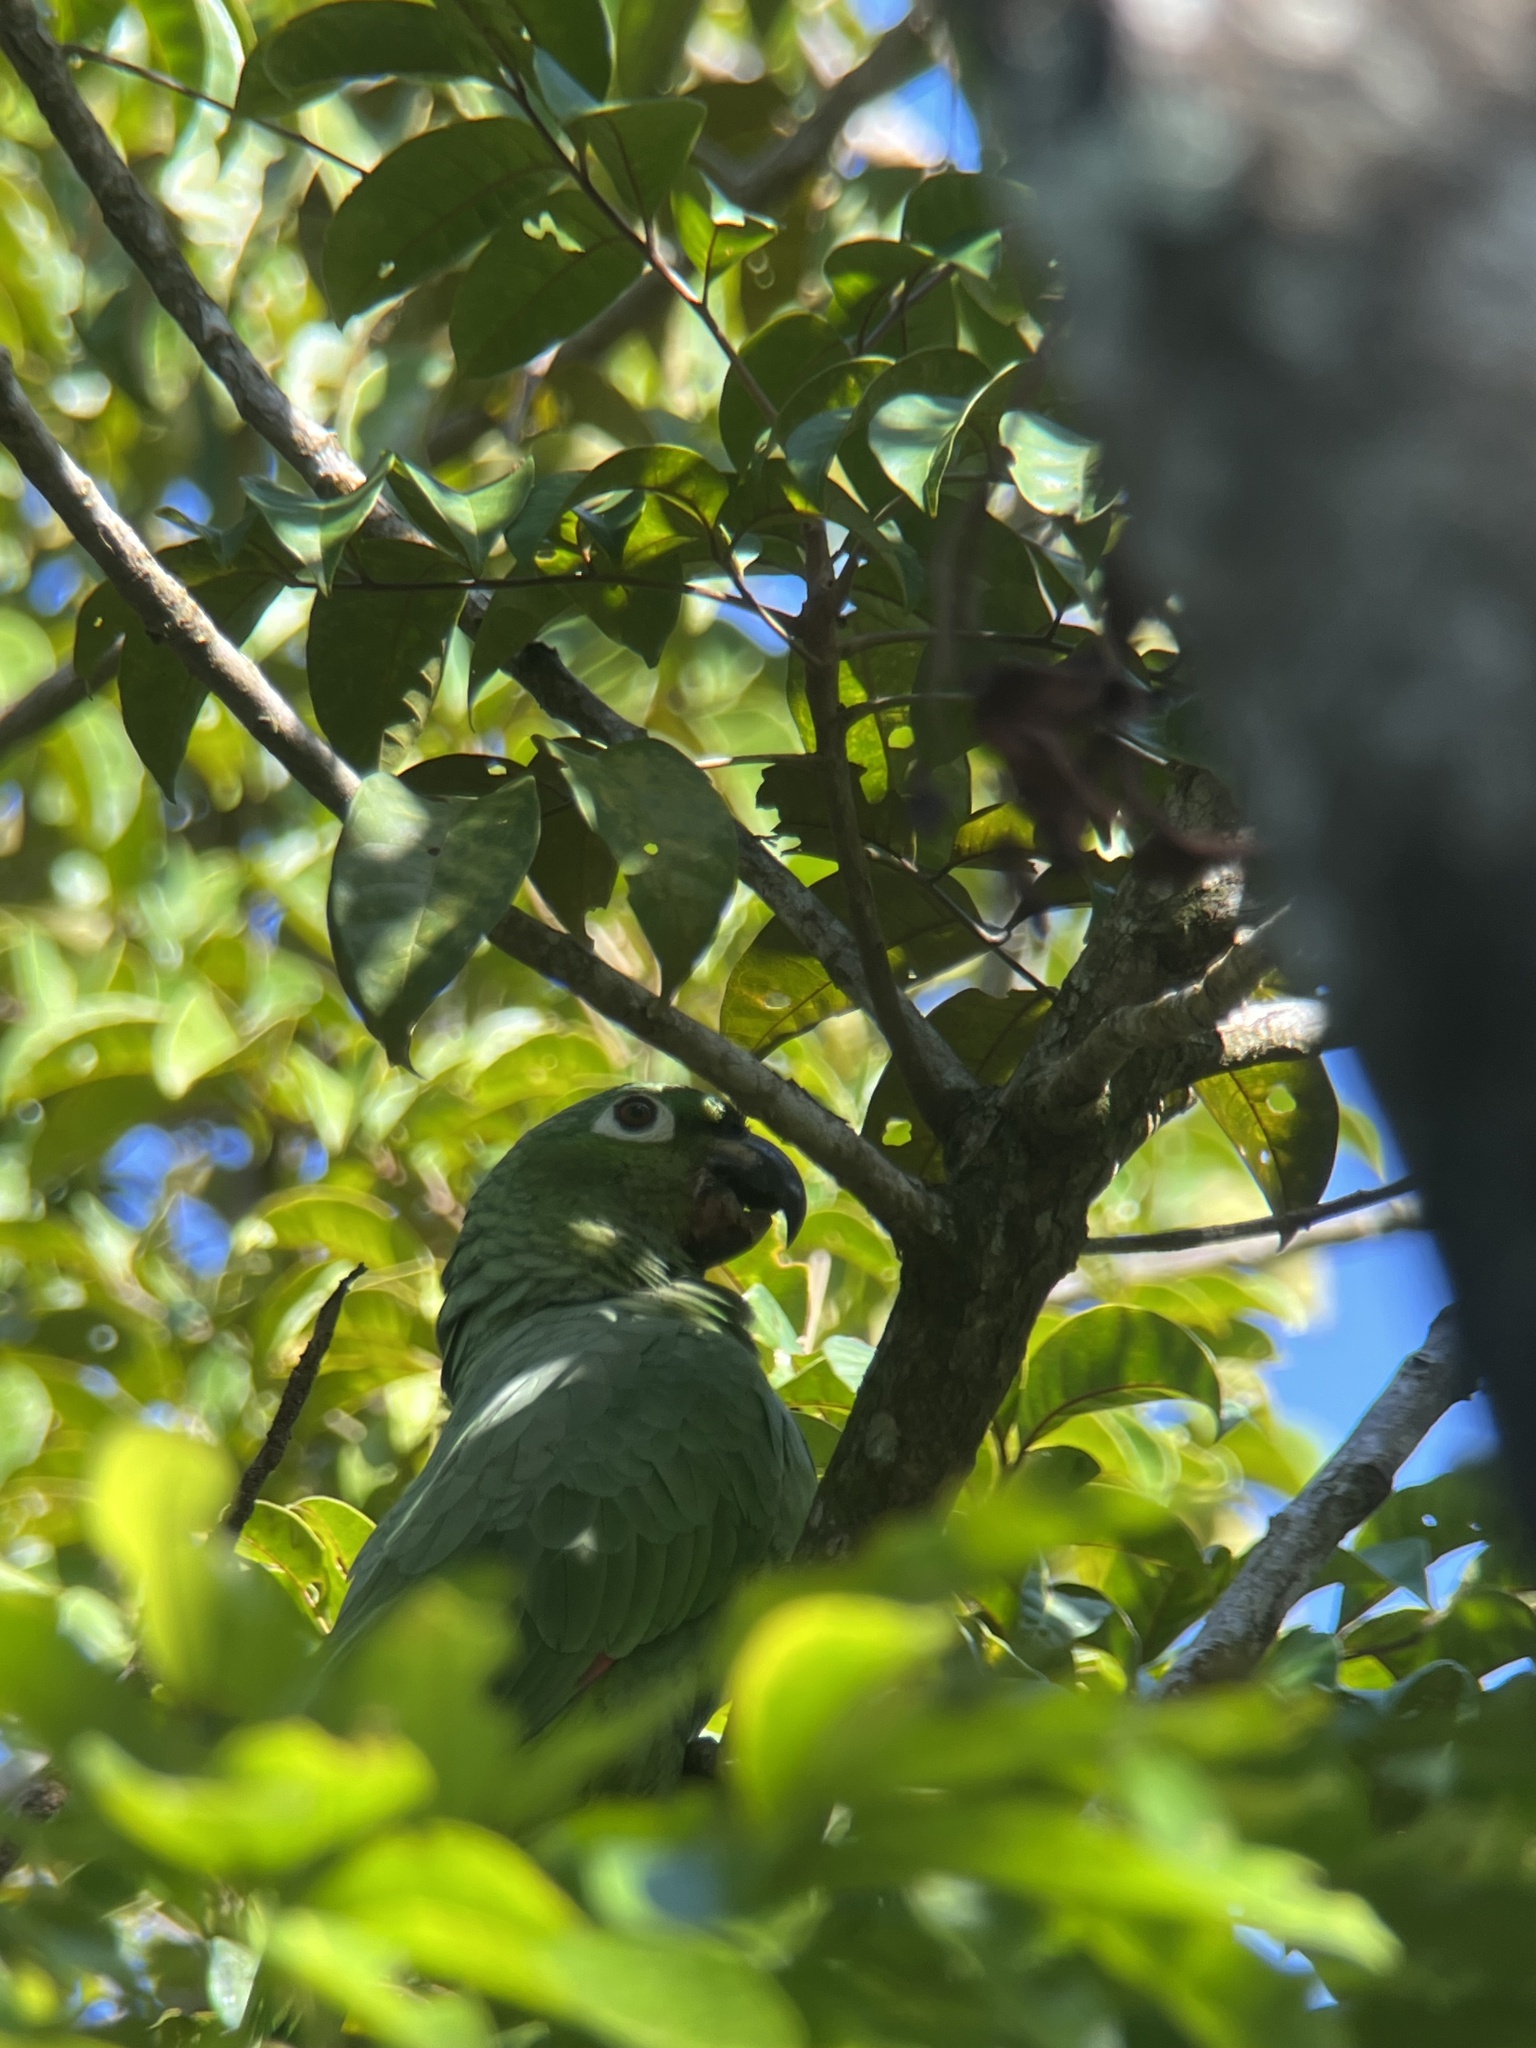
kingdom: Animalia
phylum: Chordata
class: Aves
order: Psittaciformes
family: Psittacidae
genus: Amazona
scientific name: Amazona farinosa
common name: Mealy parrot
